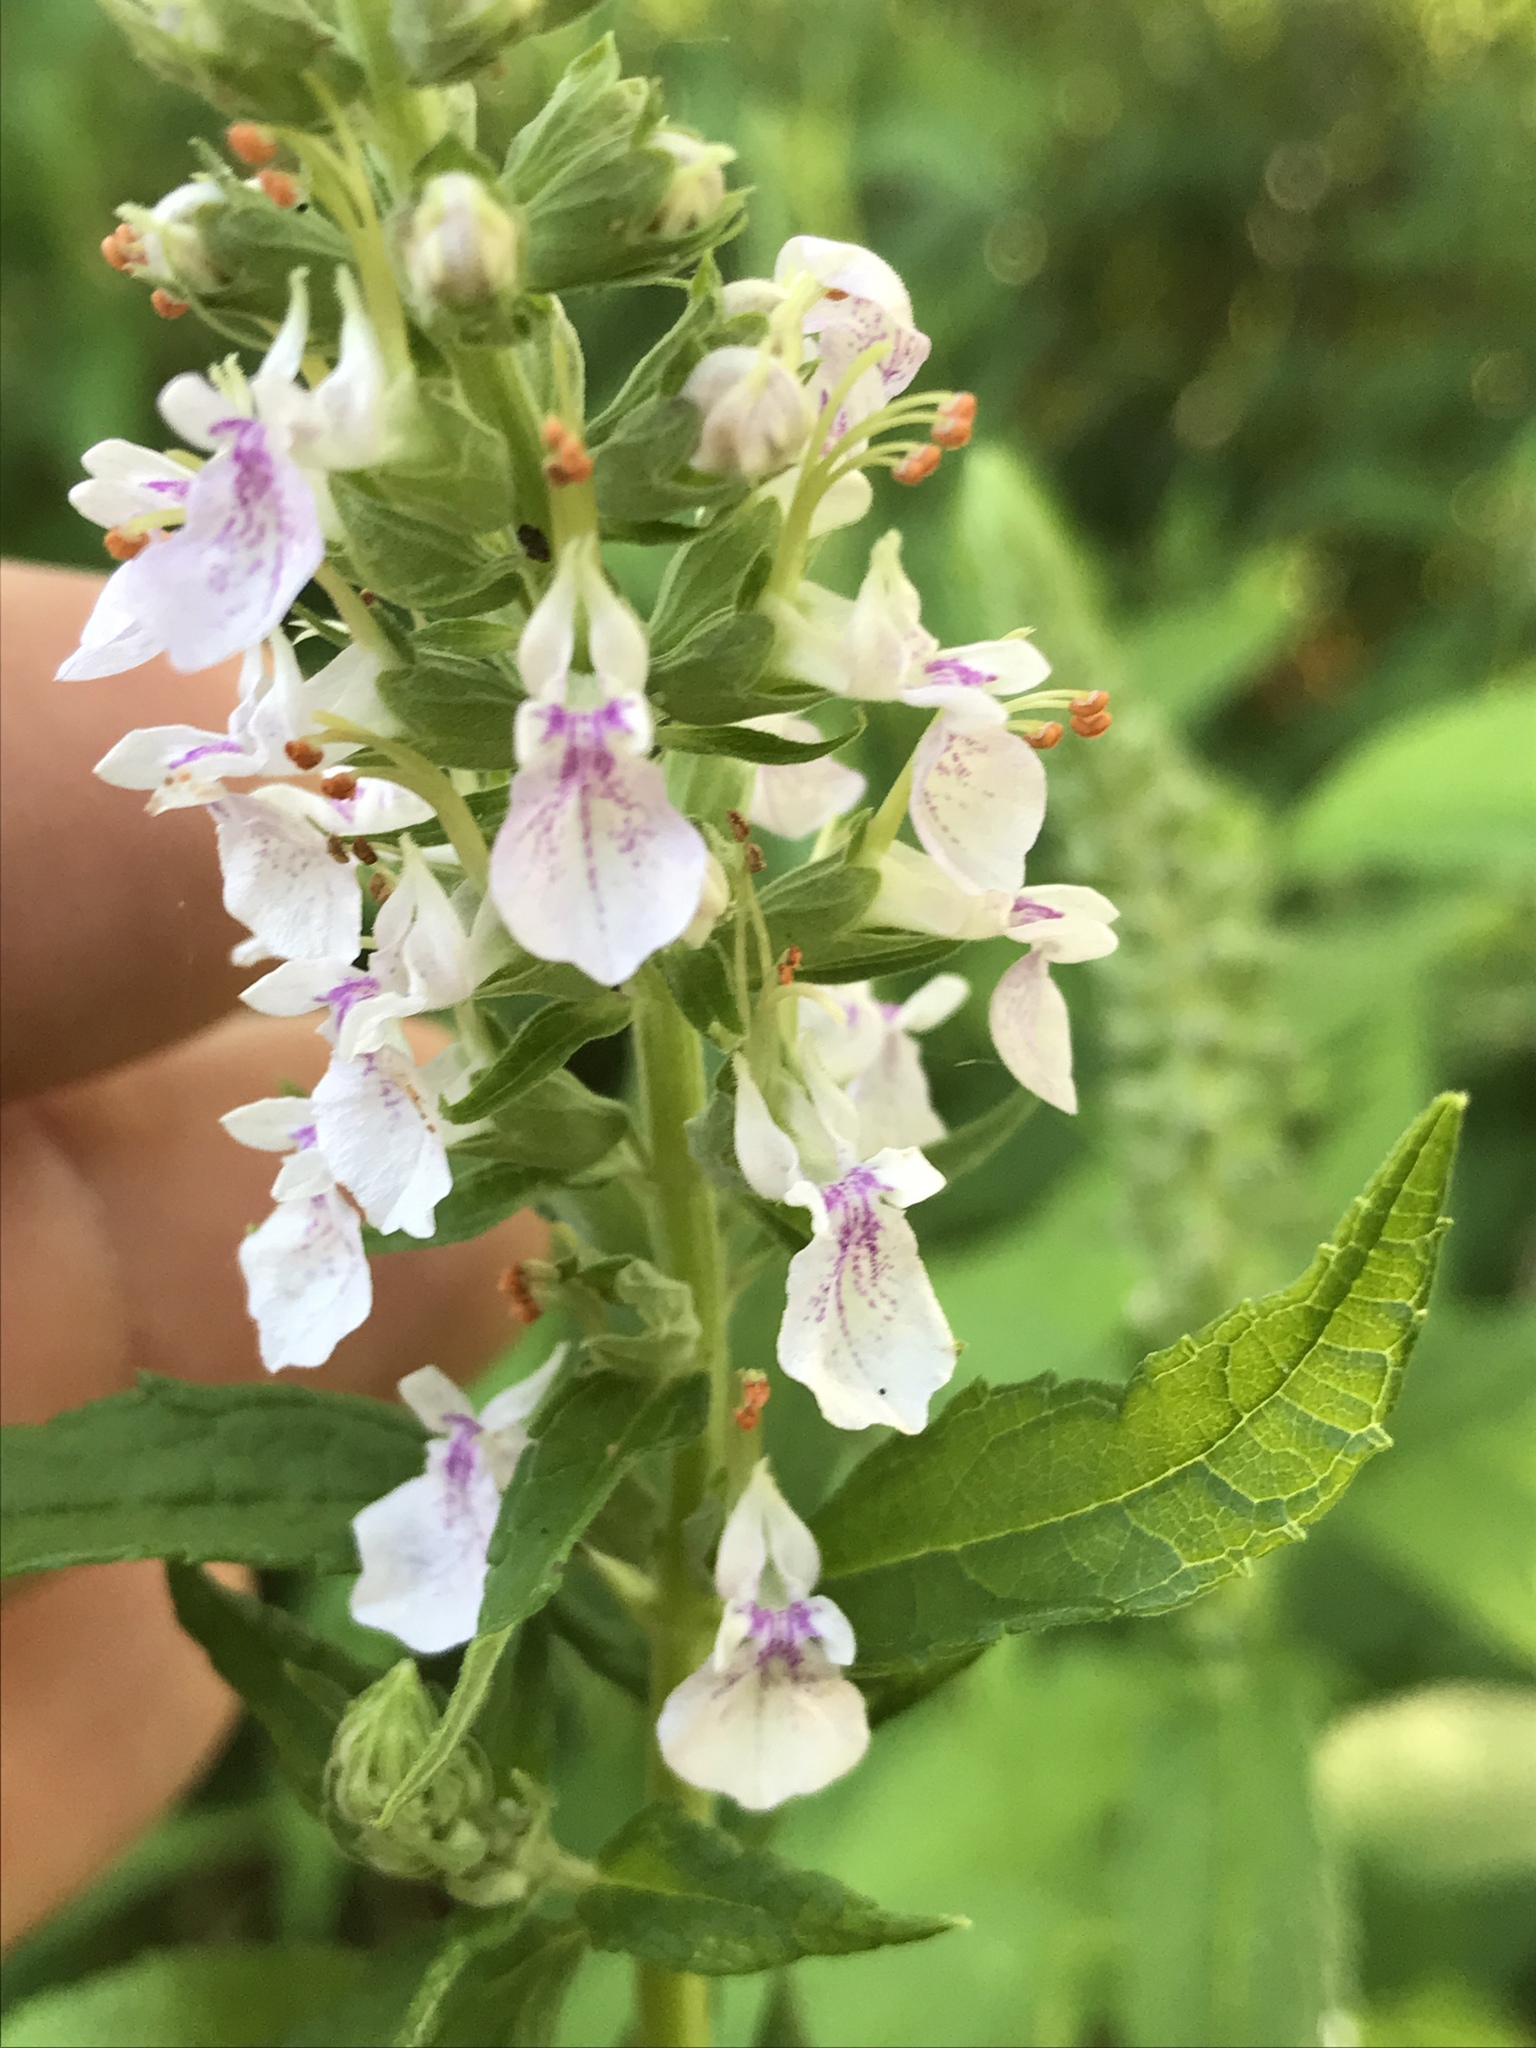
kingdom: Plantae
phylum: Tracheophyta
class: Magnoliopsida
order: Lamiales
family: Lamiaceae
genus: Teucrium
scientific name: Teucrium canadense
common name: American germander
